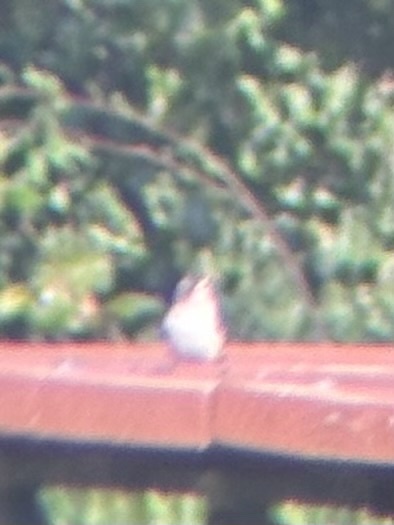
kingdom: Animalia
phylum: Chordata
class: Aves
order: Passeriformes
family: Sittidae
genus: Sitta
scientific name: Sitta carolinensis
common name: White-breasted nuthatch
